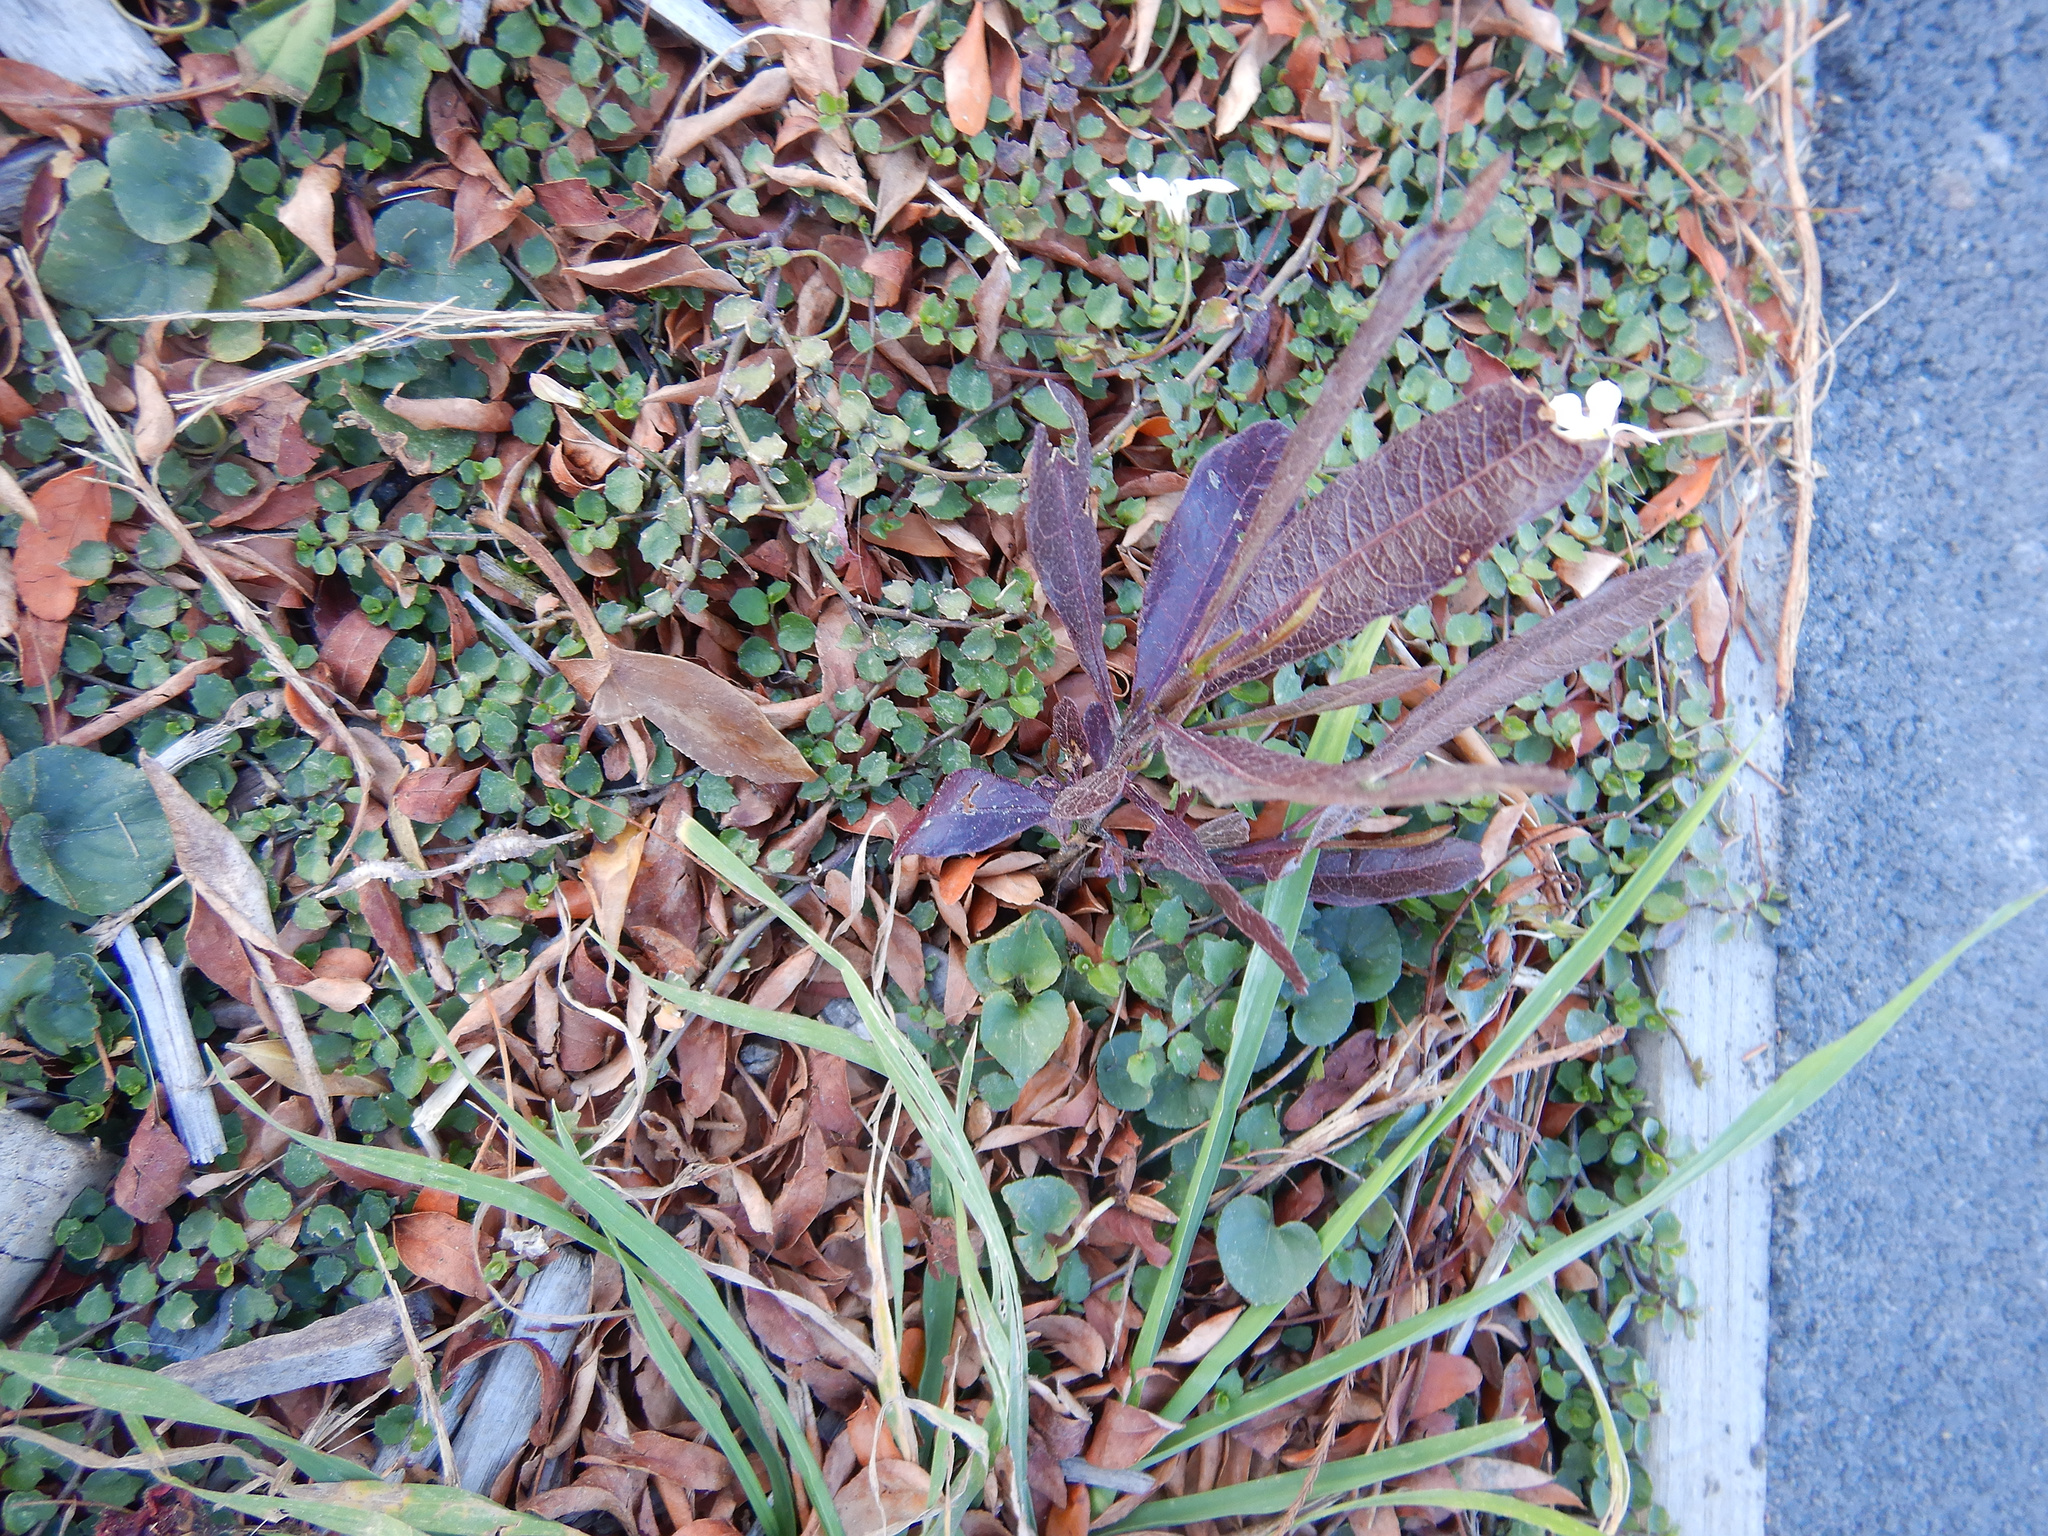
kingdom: Plantae
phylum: Tracheophyta
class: Magnoliopsida
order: Sapindales
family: Sapindaceae
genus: Dodonaea
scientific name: Dodonaea viscosa
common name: Hopbush
